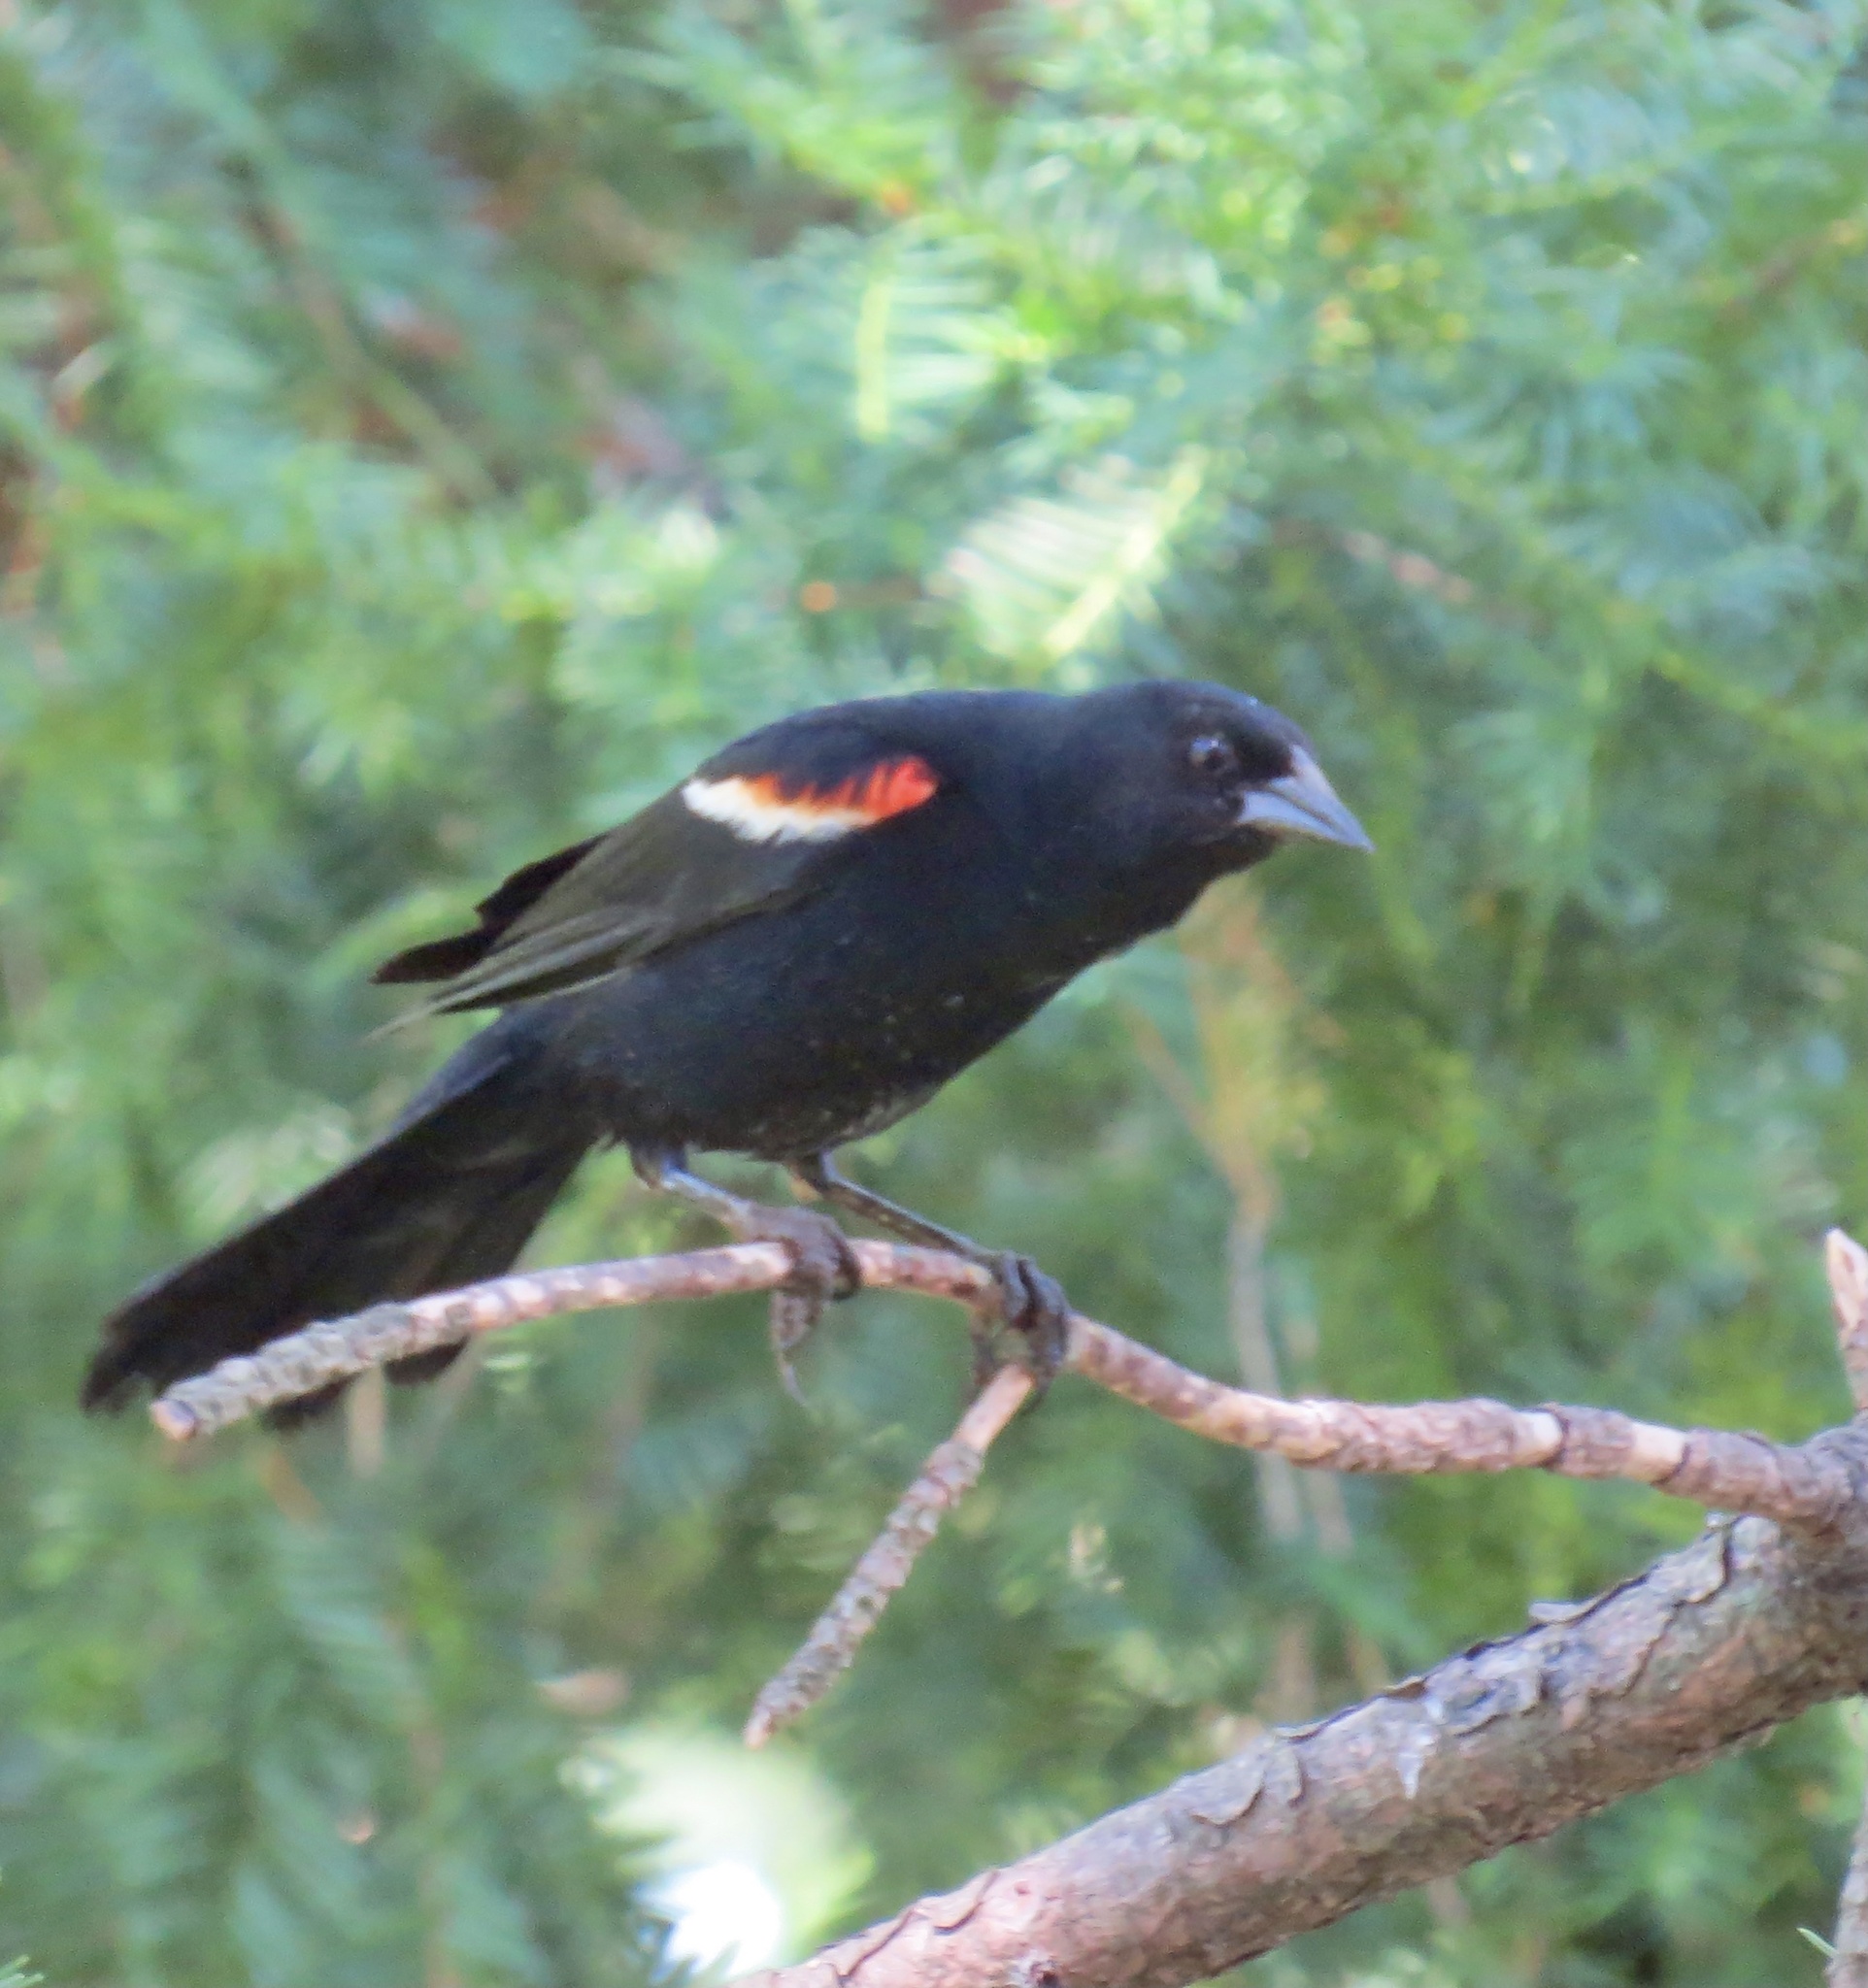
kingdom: Animalia
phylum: Chordata
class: Aves
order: Passeriformes
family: Icteridae
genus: Agelaius
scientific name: Agelaius phoeniceus
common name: Red-winged blackbird
